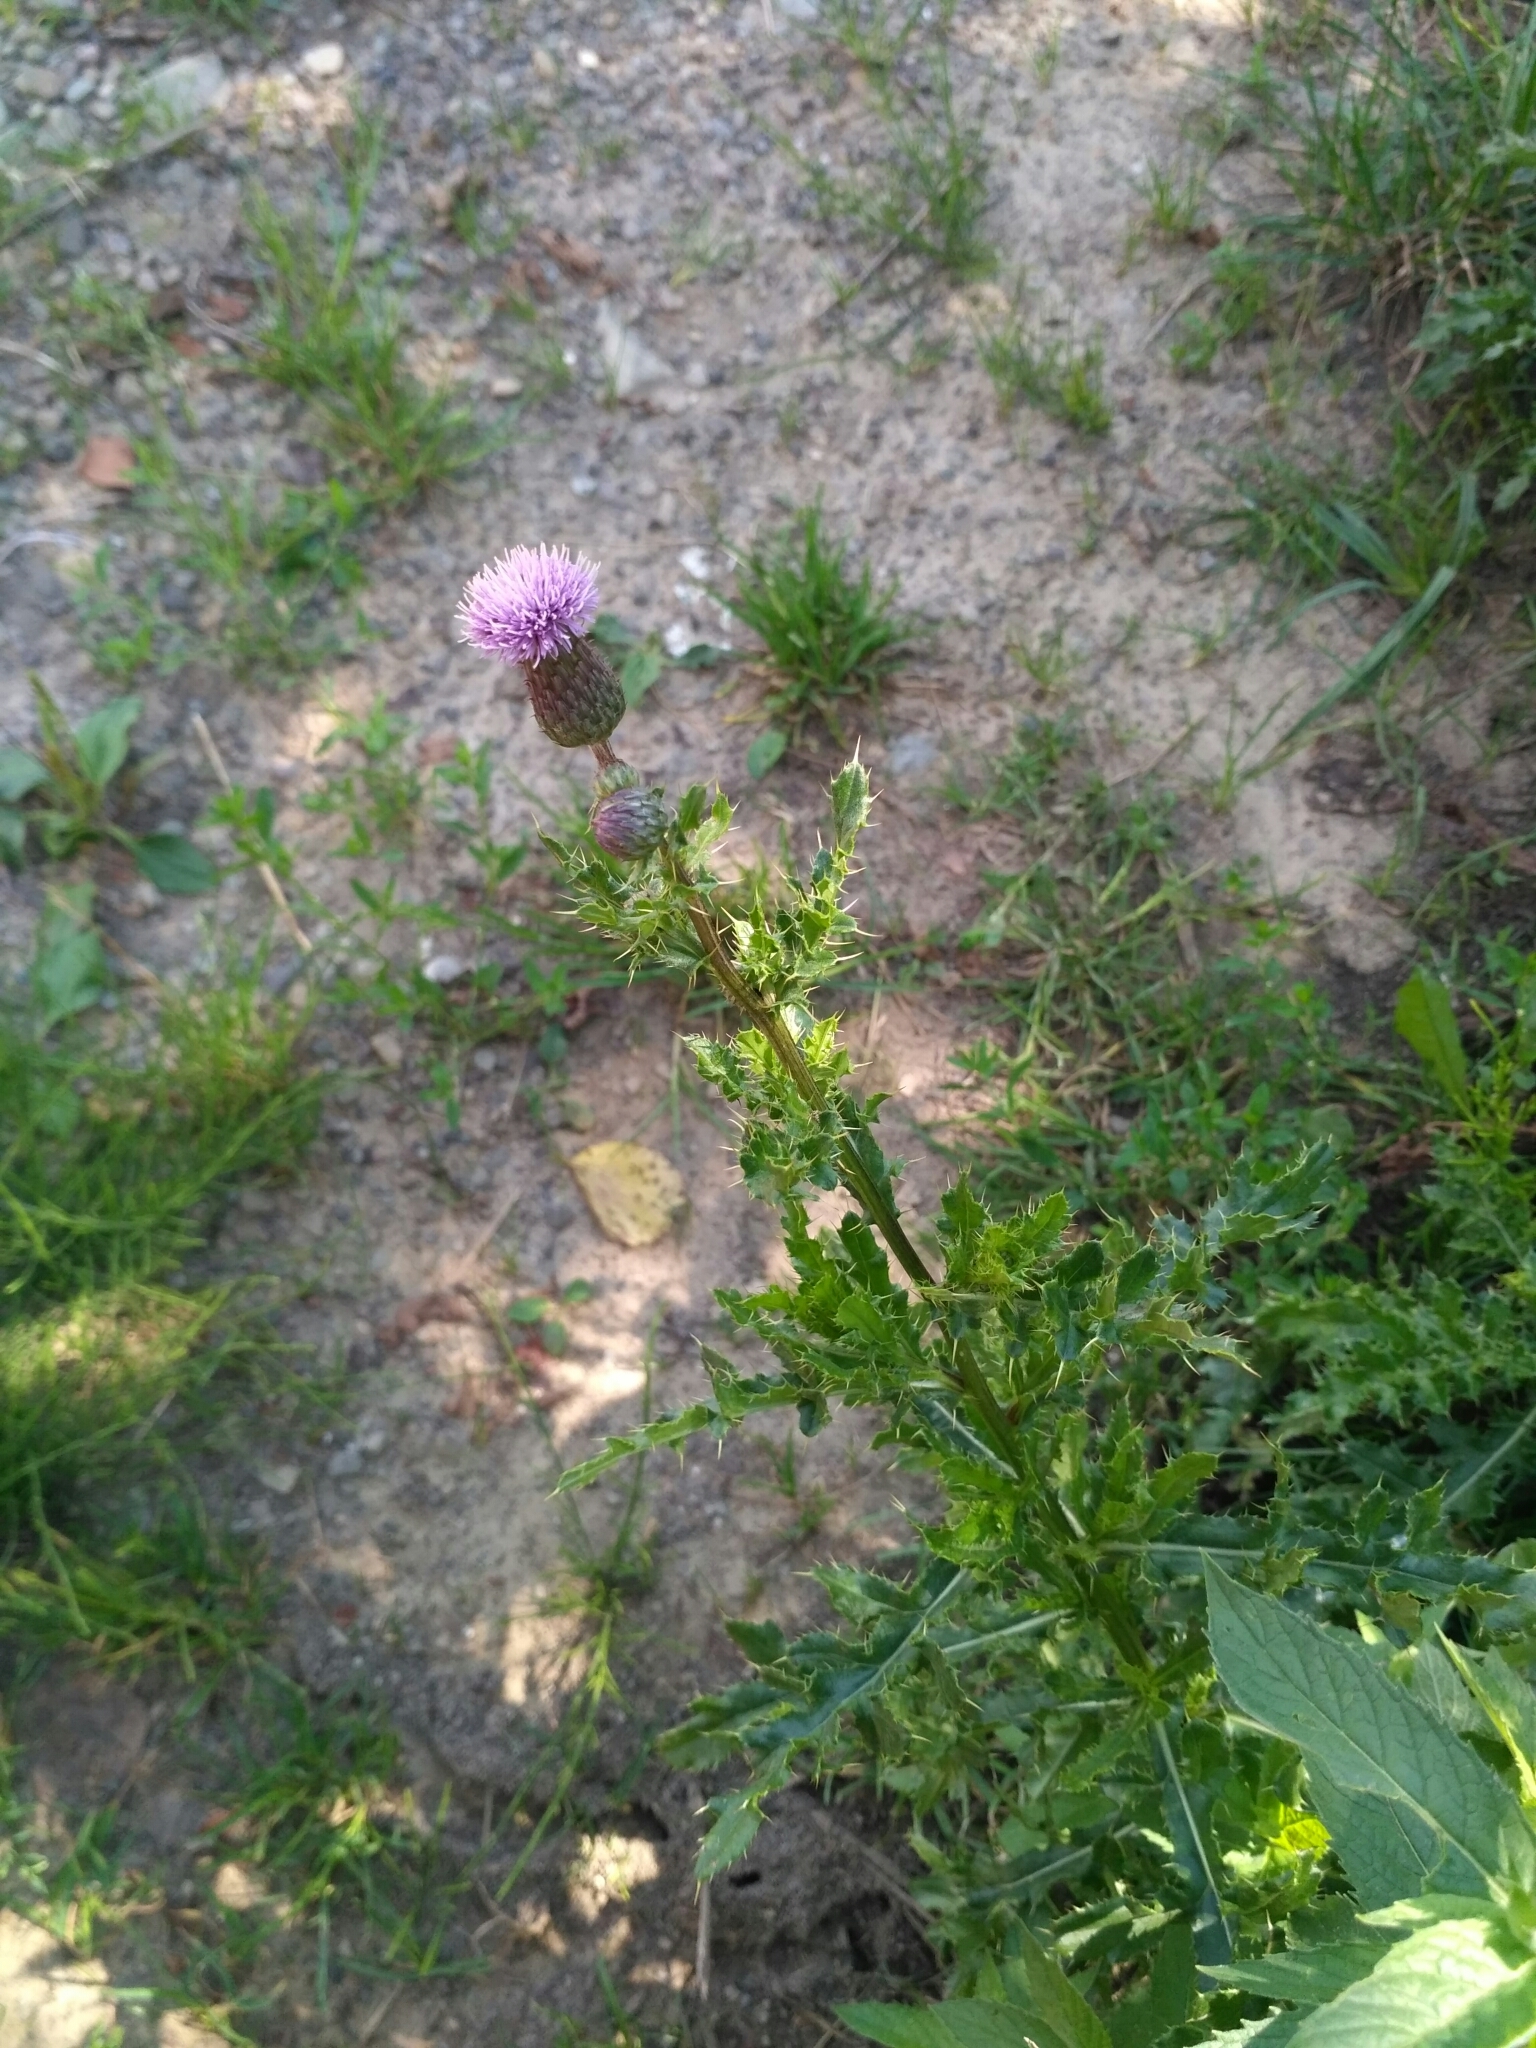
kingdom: Plantae
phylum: Tracheophyta
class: Magnoliopsida
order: Asterales
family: Asteraceae
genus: Cirsium
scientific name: Cirsium arvense
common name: Creeping thistle
